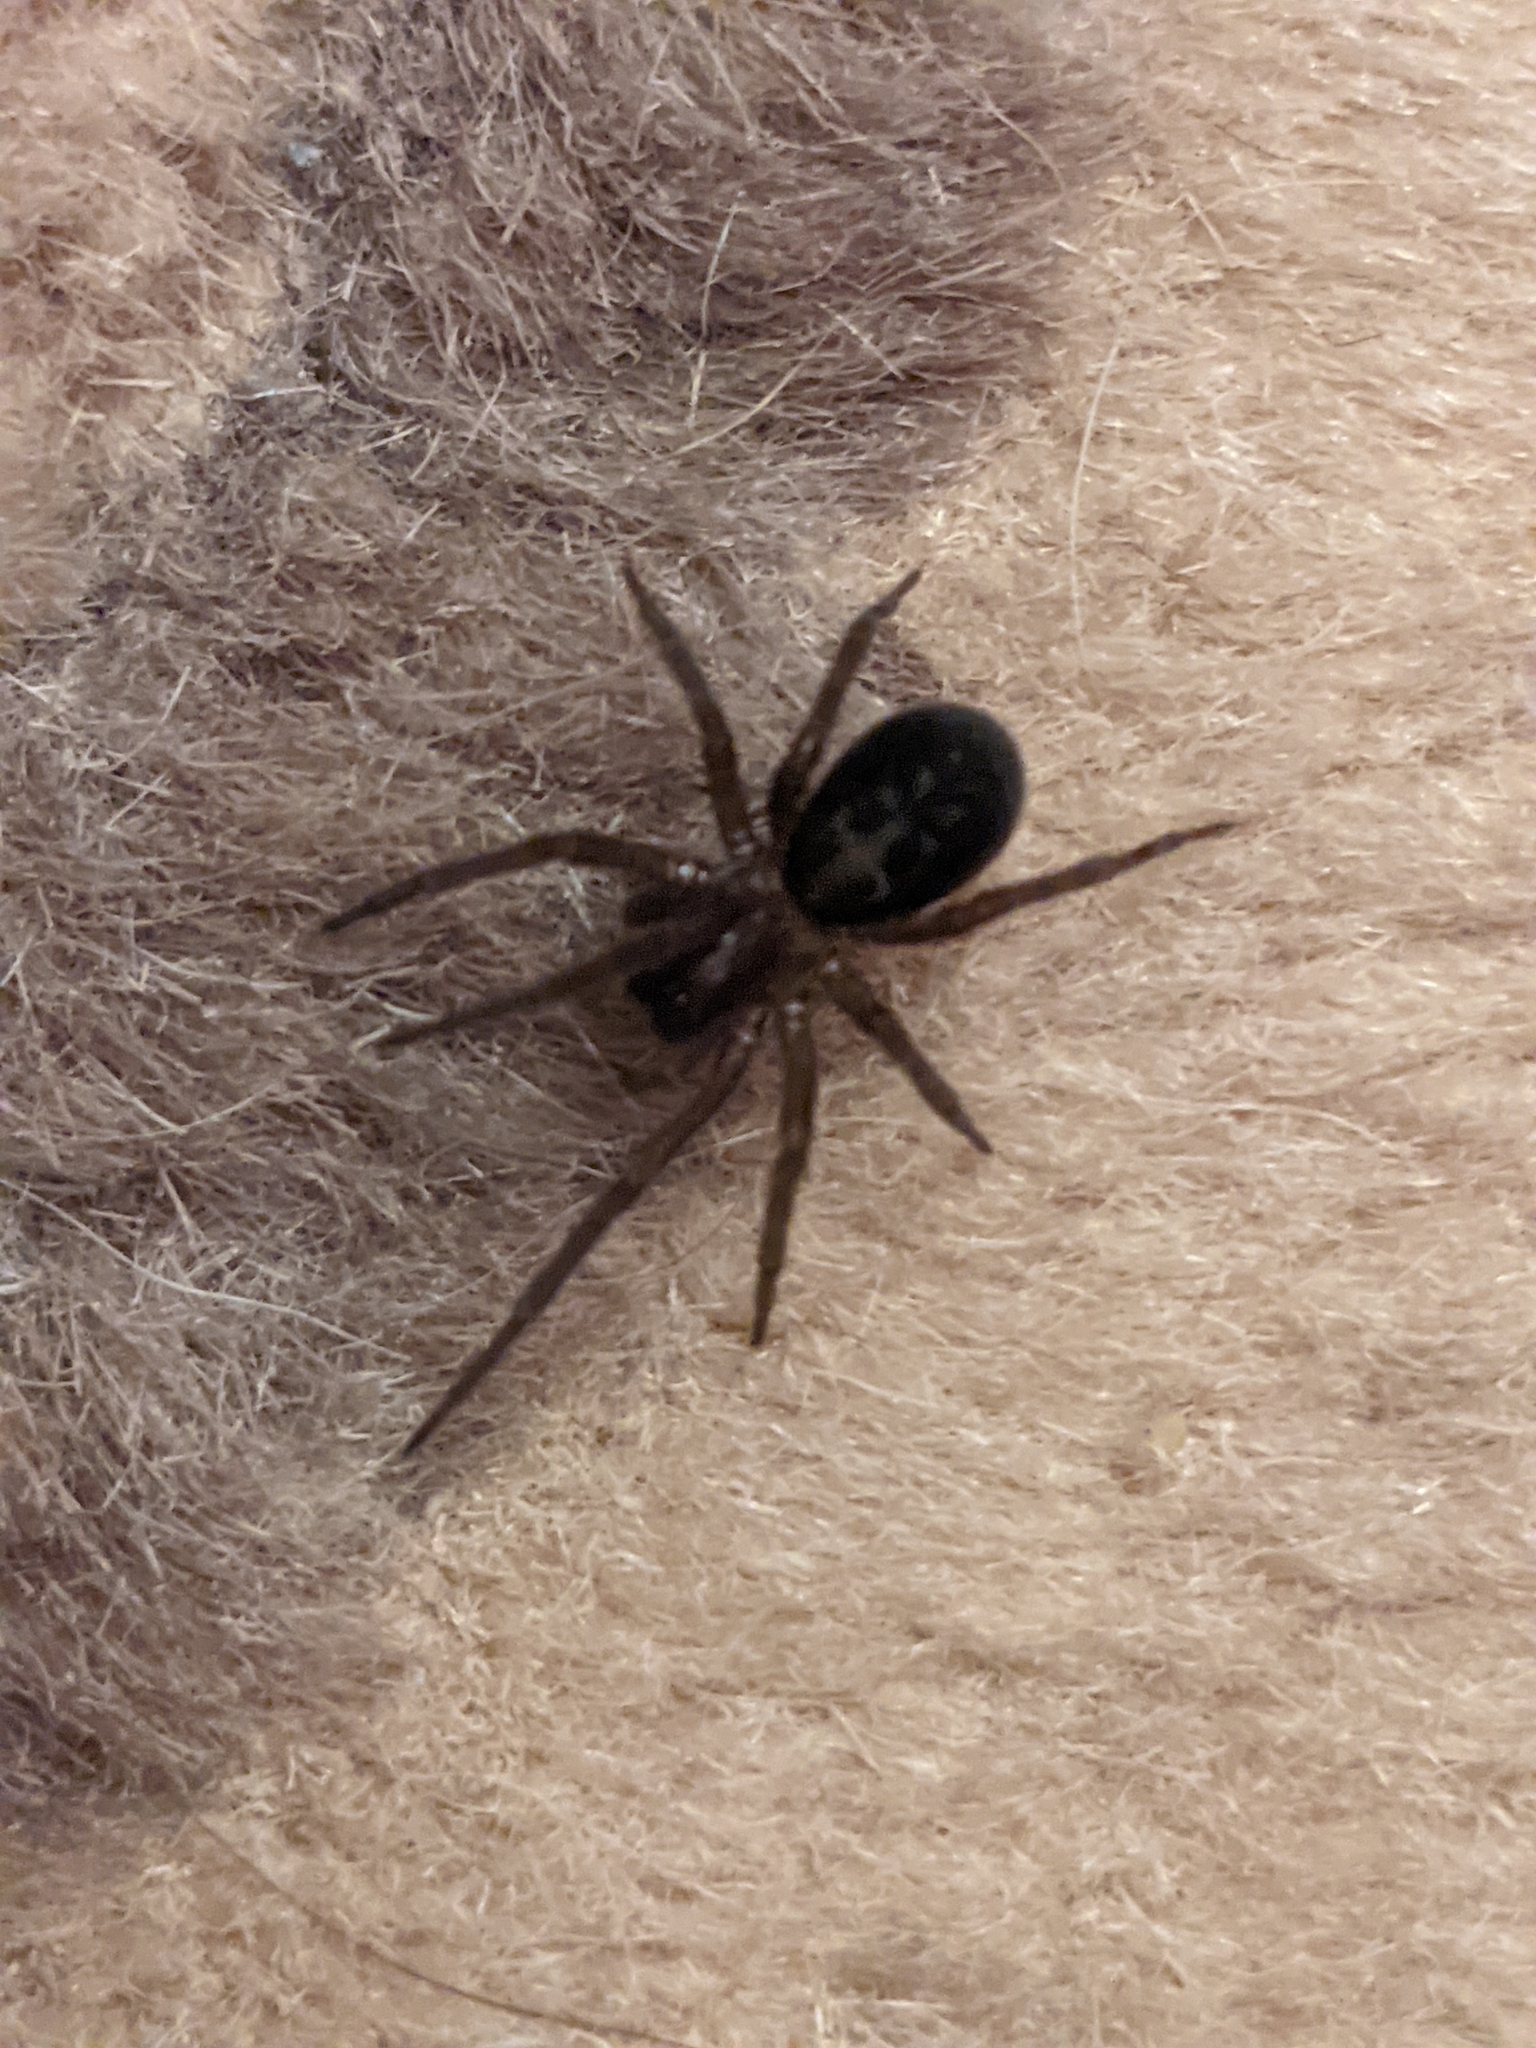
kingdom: Animalia
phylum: Arthropoda
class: Arachnida
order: Araneae
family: Amaurobiidae
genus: Amaurobius
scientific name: Amaurobius ferox
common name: Black laceweaver
